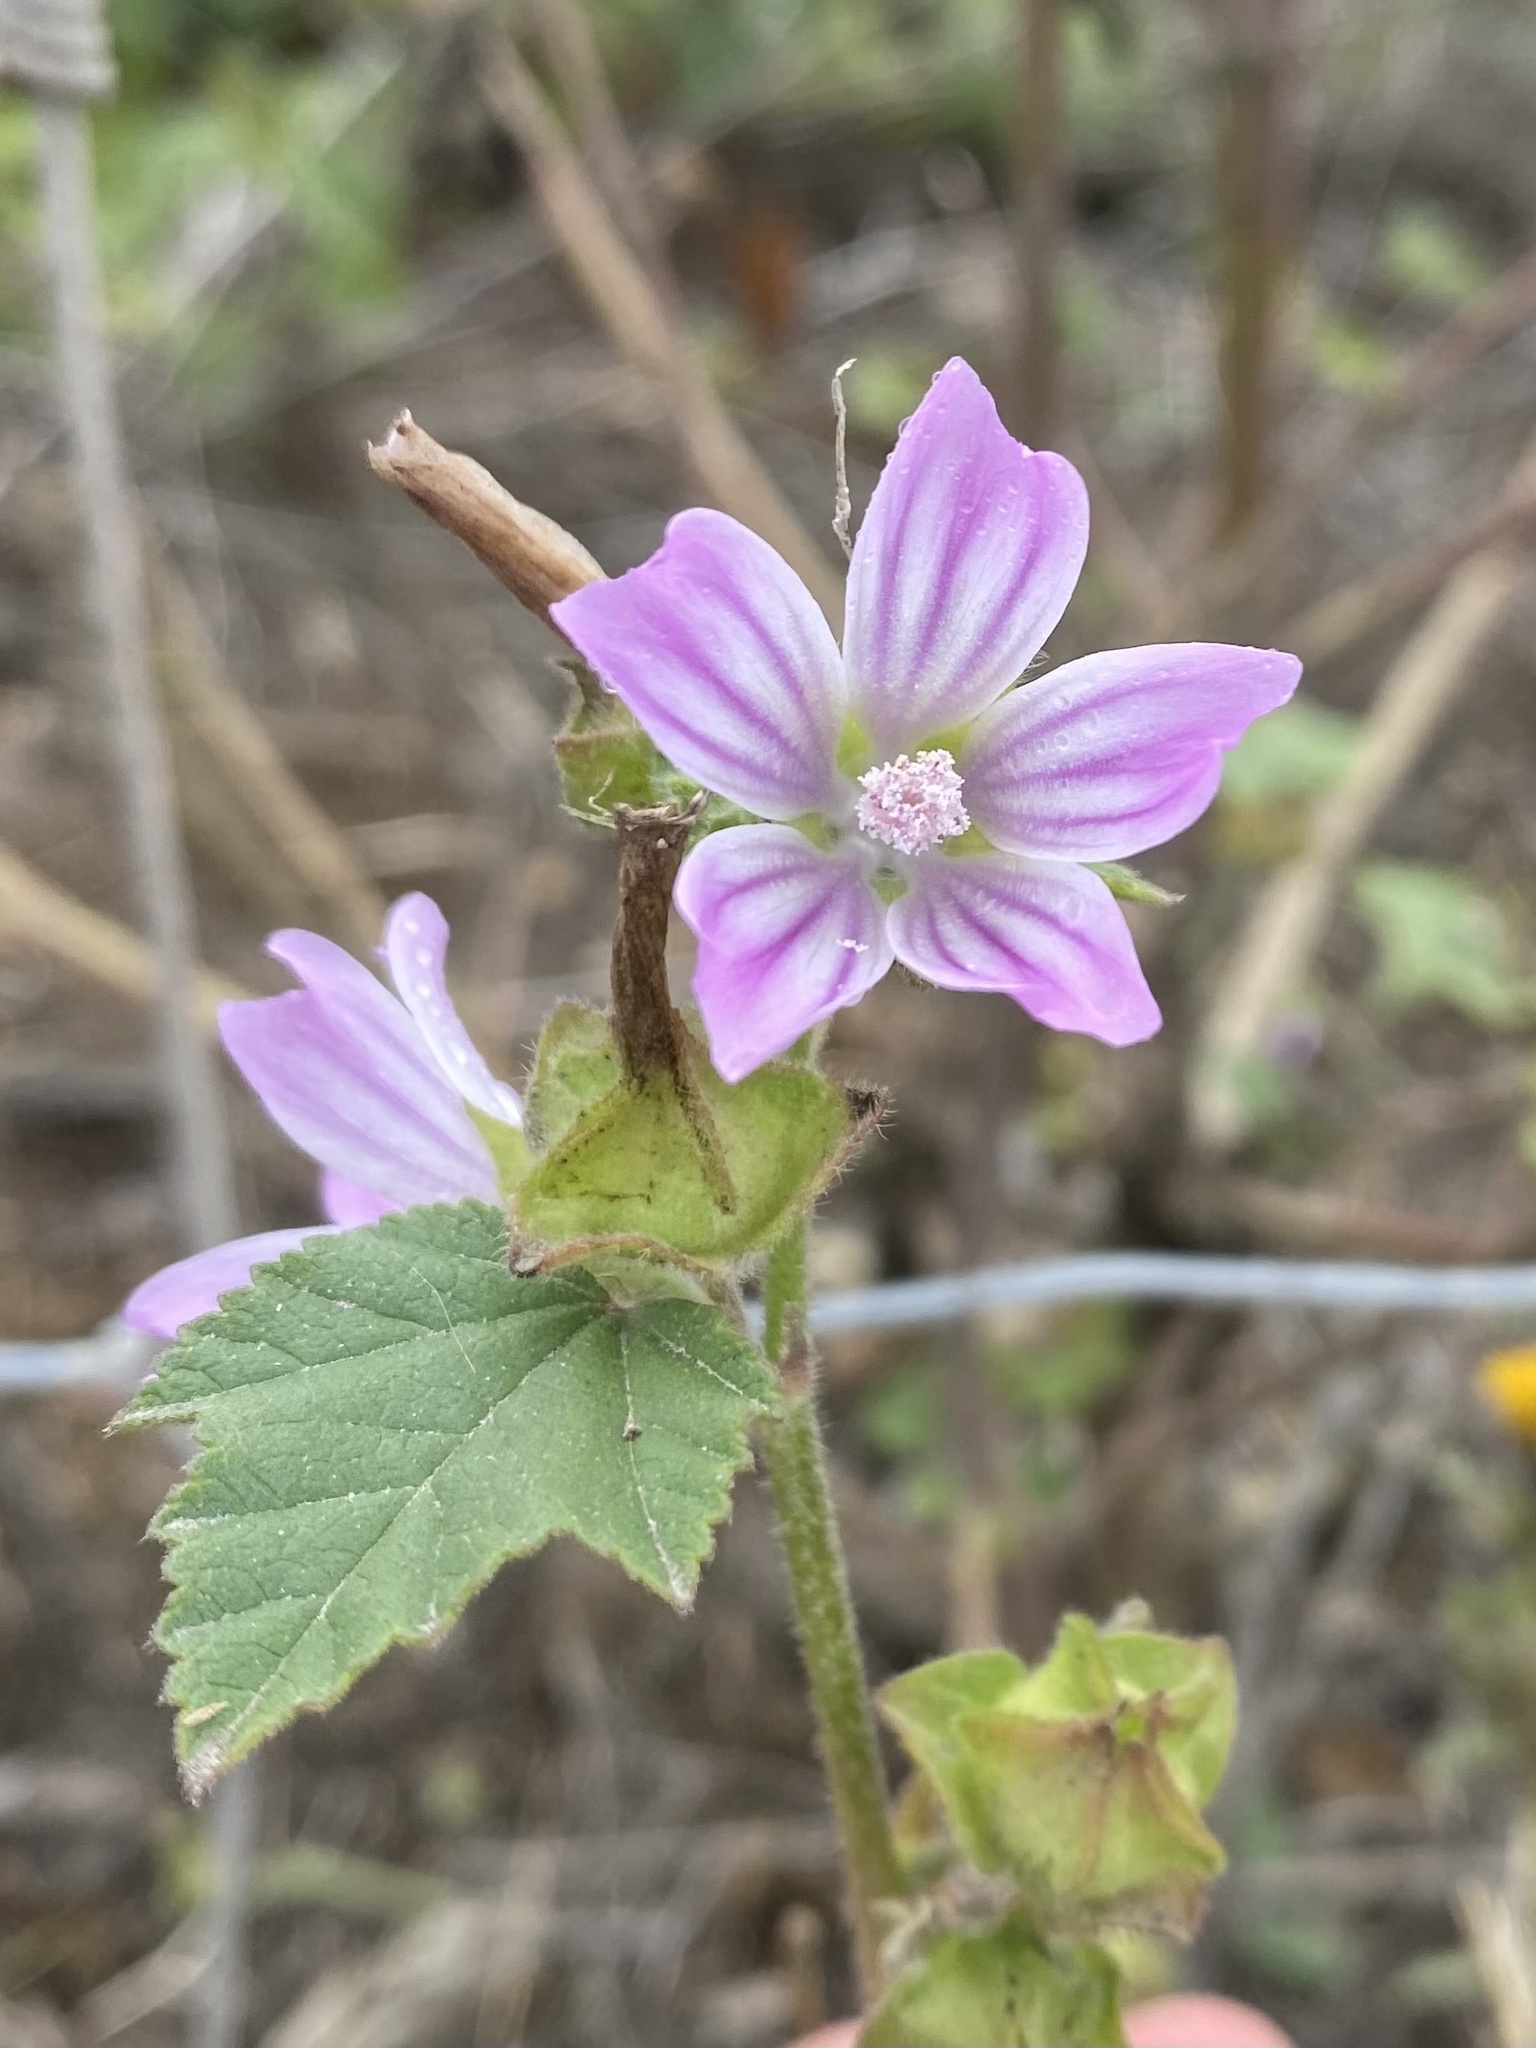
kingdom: Plantae
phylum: Tracheophyta
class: Magnoliopsida
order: Malvales
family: Malvaceae
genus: Malva
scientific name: Malva multiflora
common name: Cheeseweed
